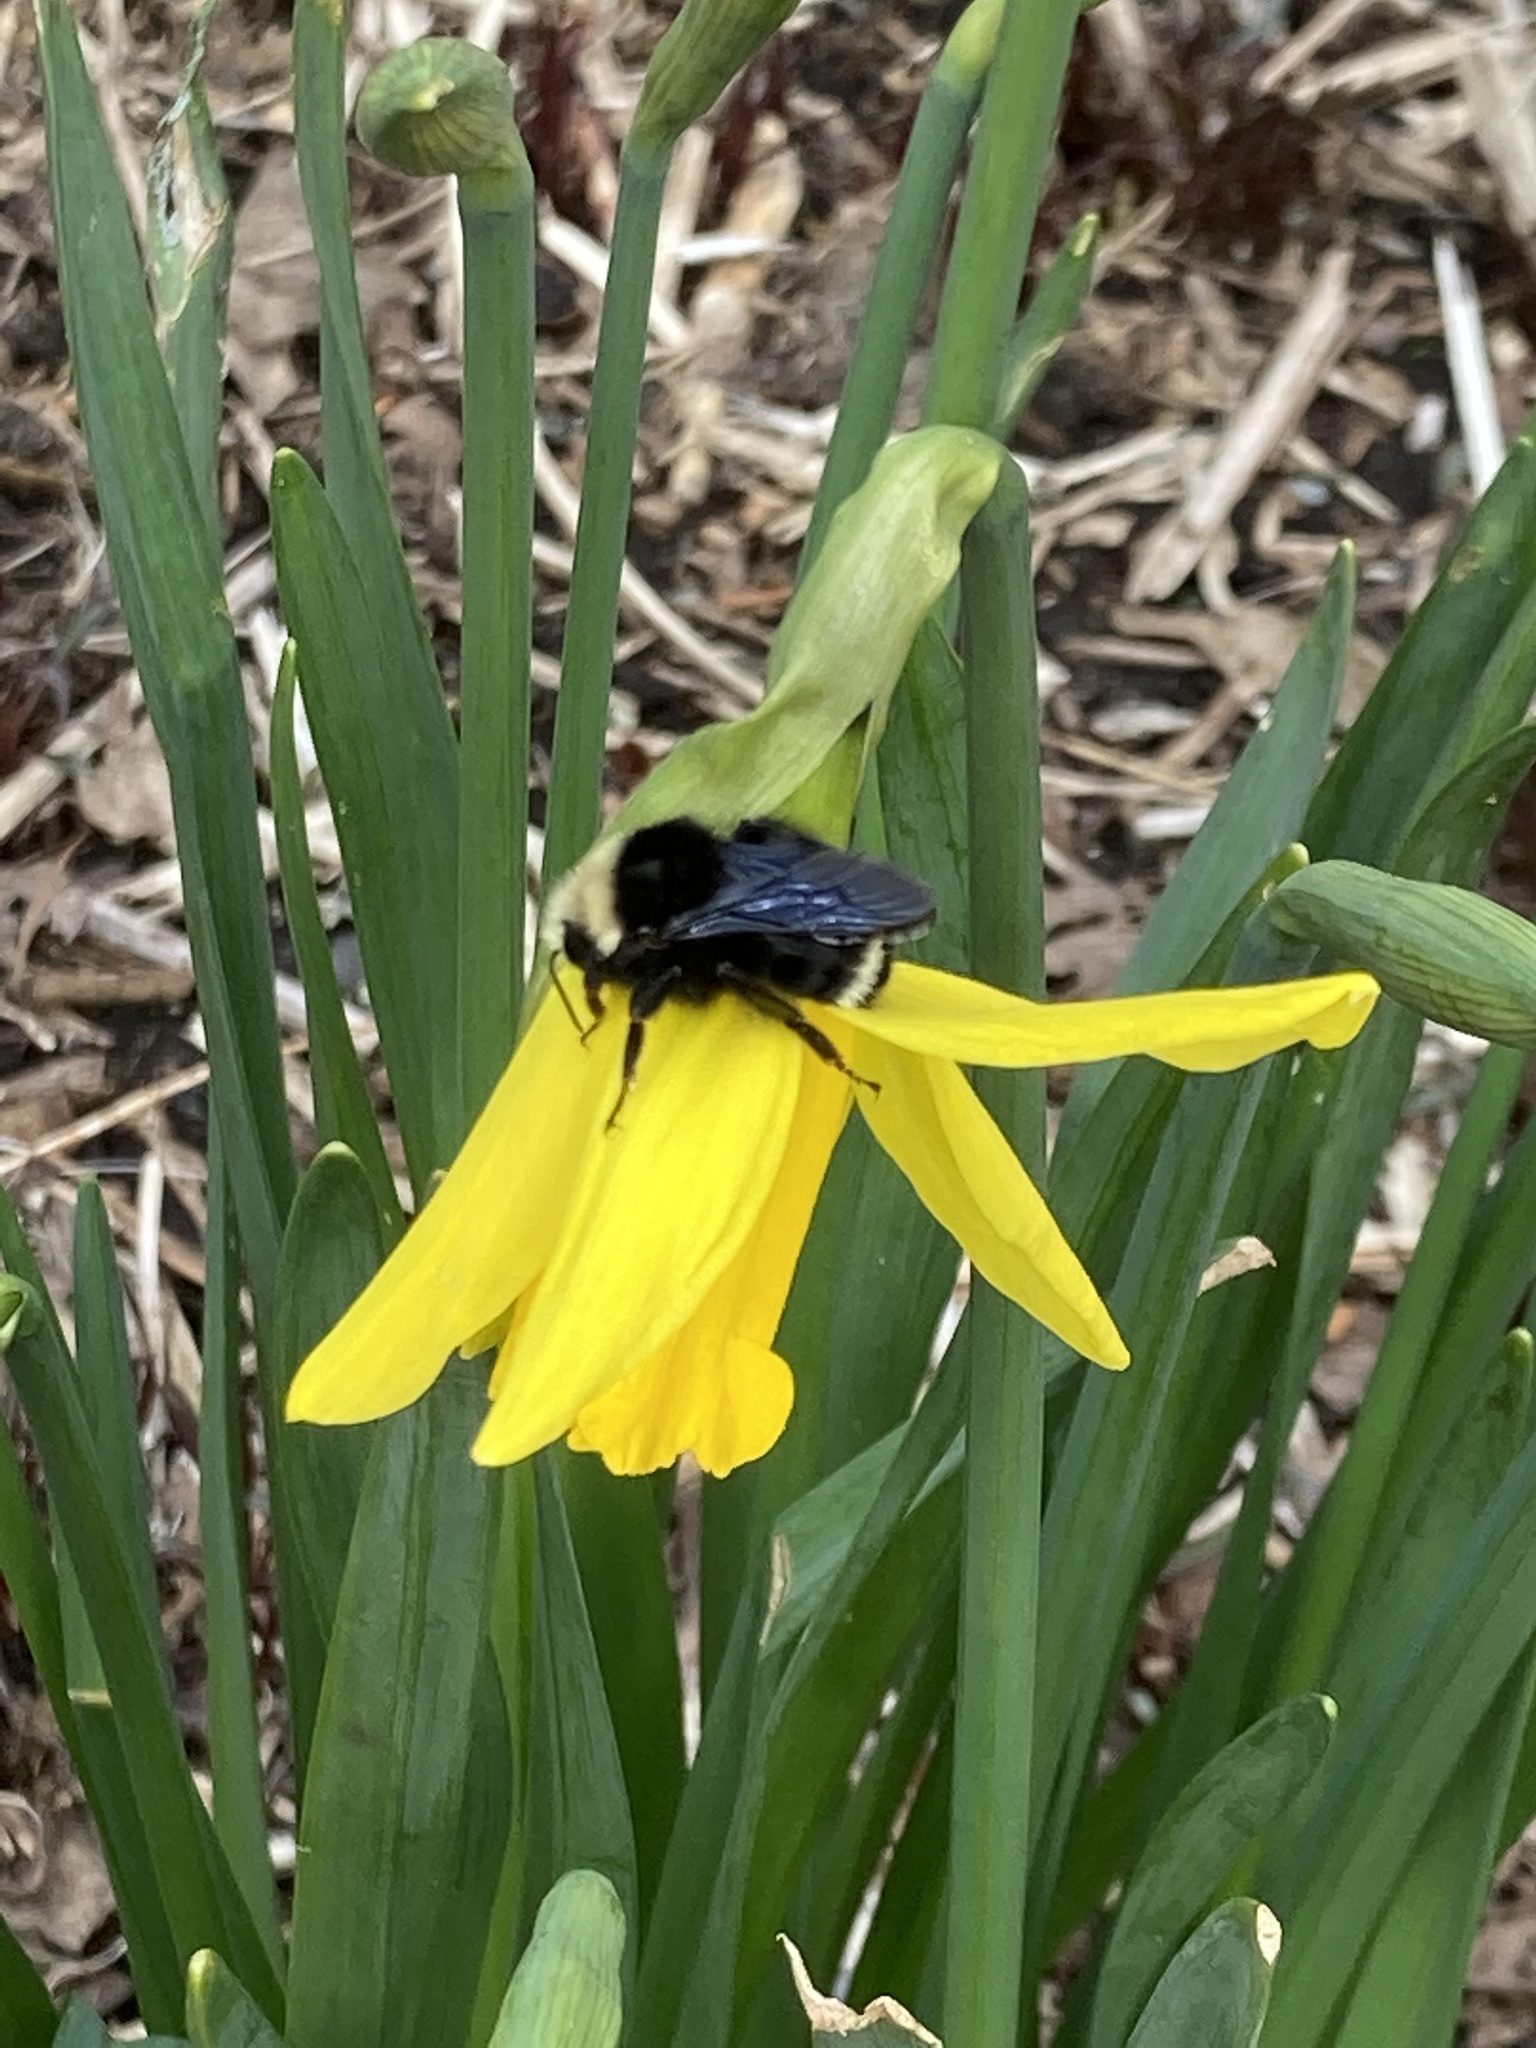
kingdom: Animalia
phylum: Arthropoda
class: Insecta
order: Hymenoptera
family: Apidae
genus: Bombus
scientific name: Bombus vosnesenskii
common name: Vosnesensky bumble bee
